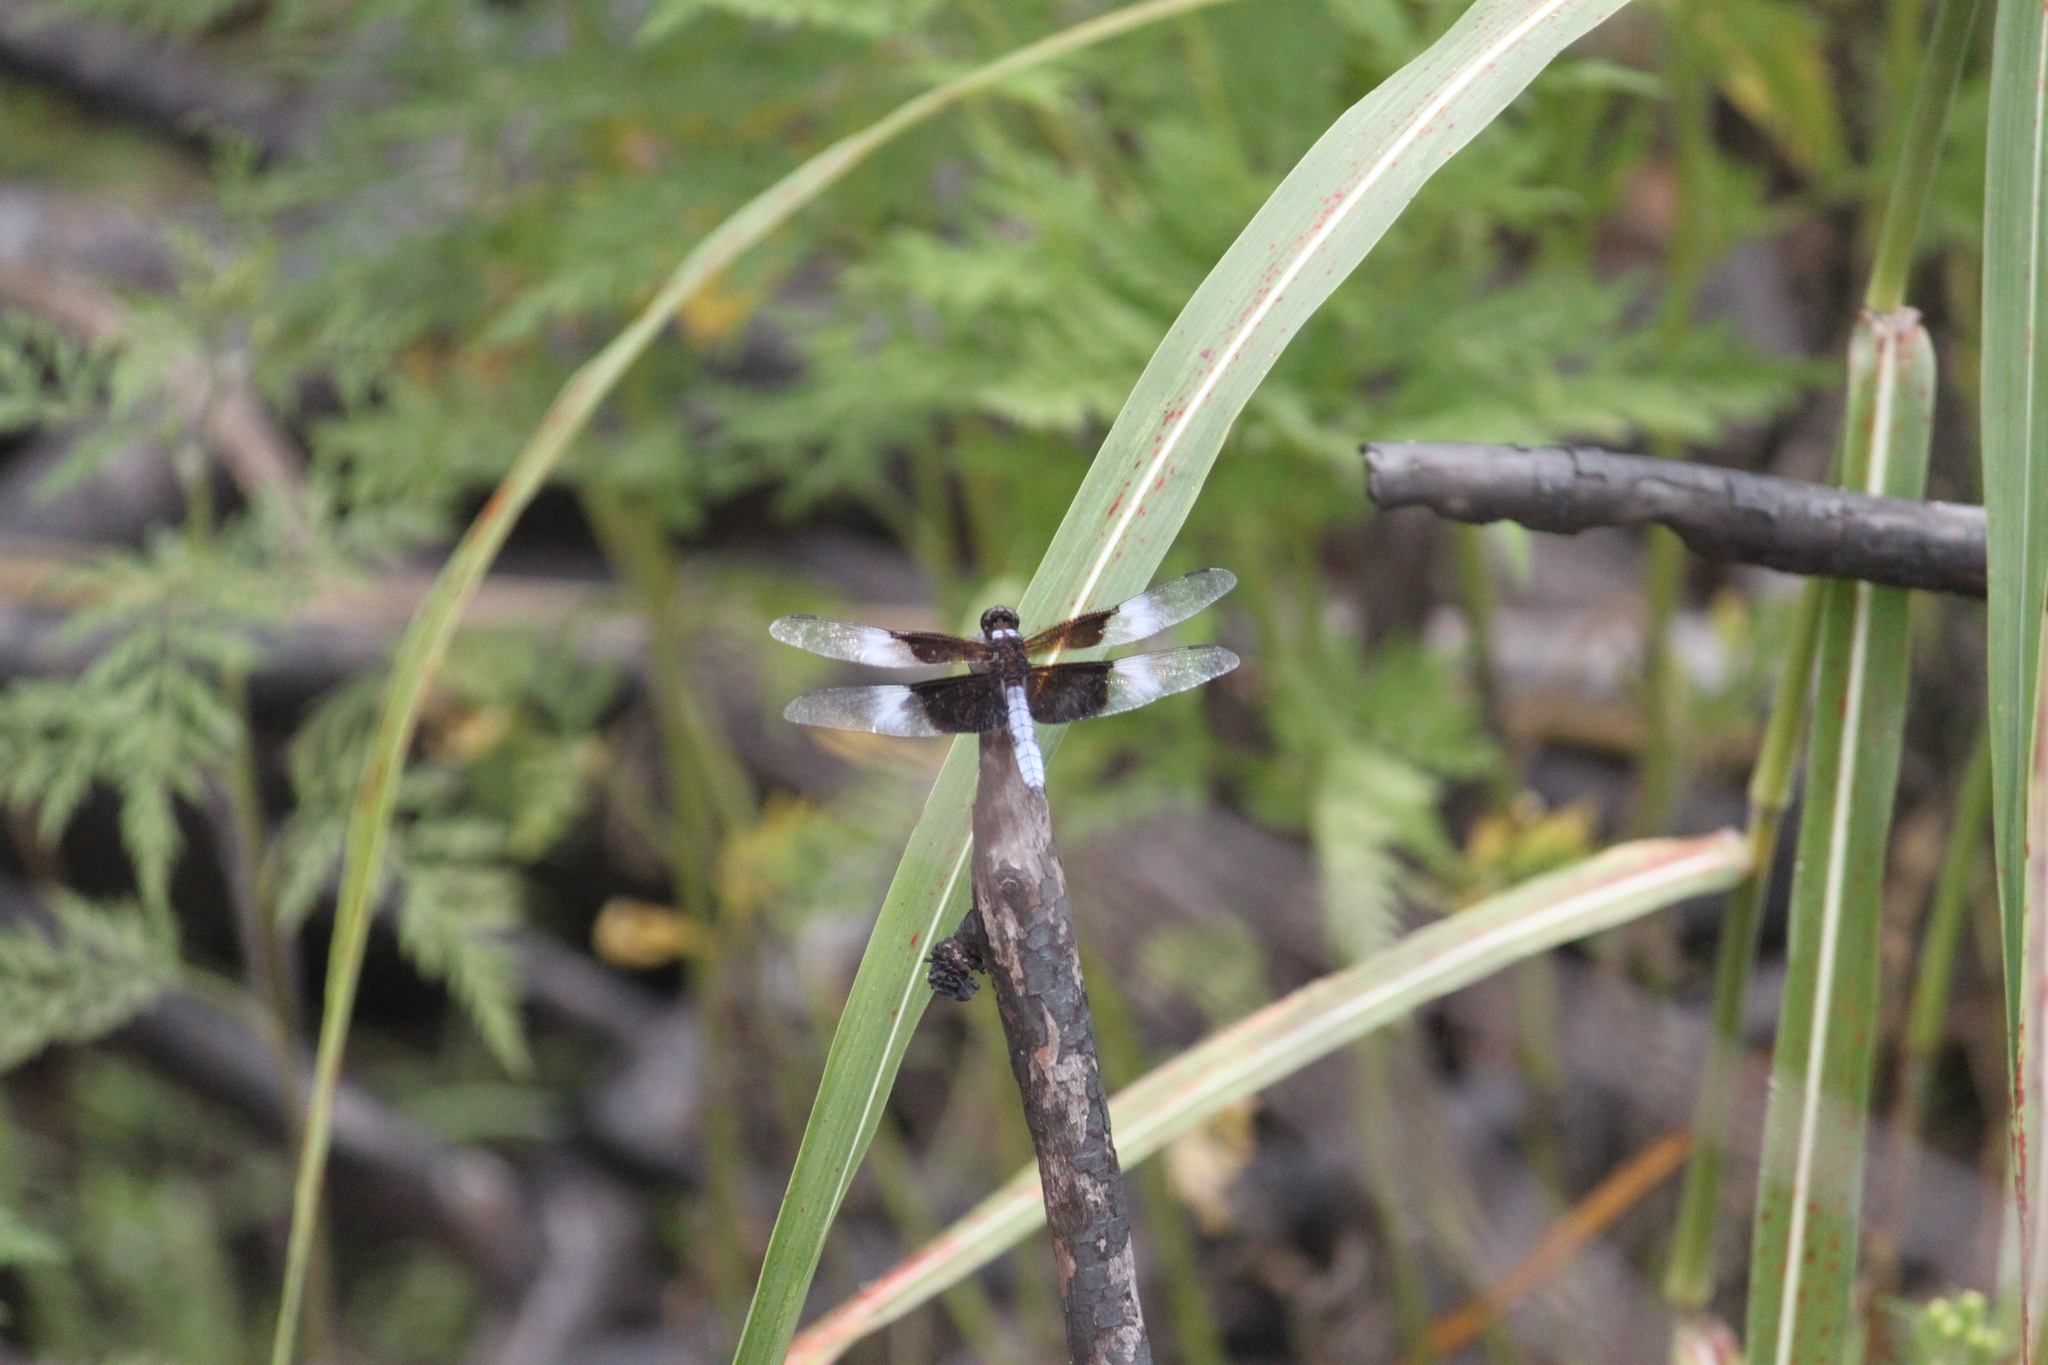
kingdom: Animalia
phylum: Arthropoda
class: Insecta
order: Odonata
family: Libellulidae
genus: Libellula
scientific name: Libellula luctuosa
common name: Widow skimmer
